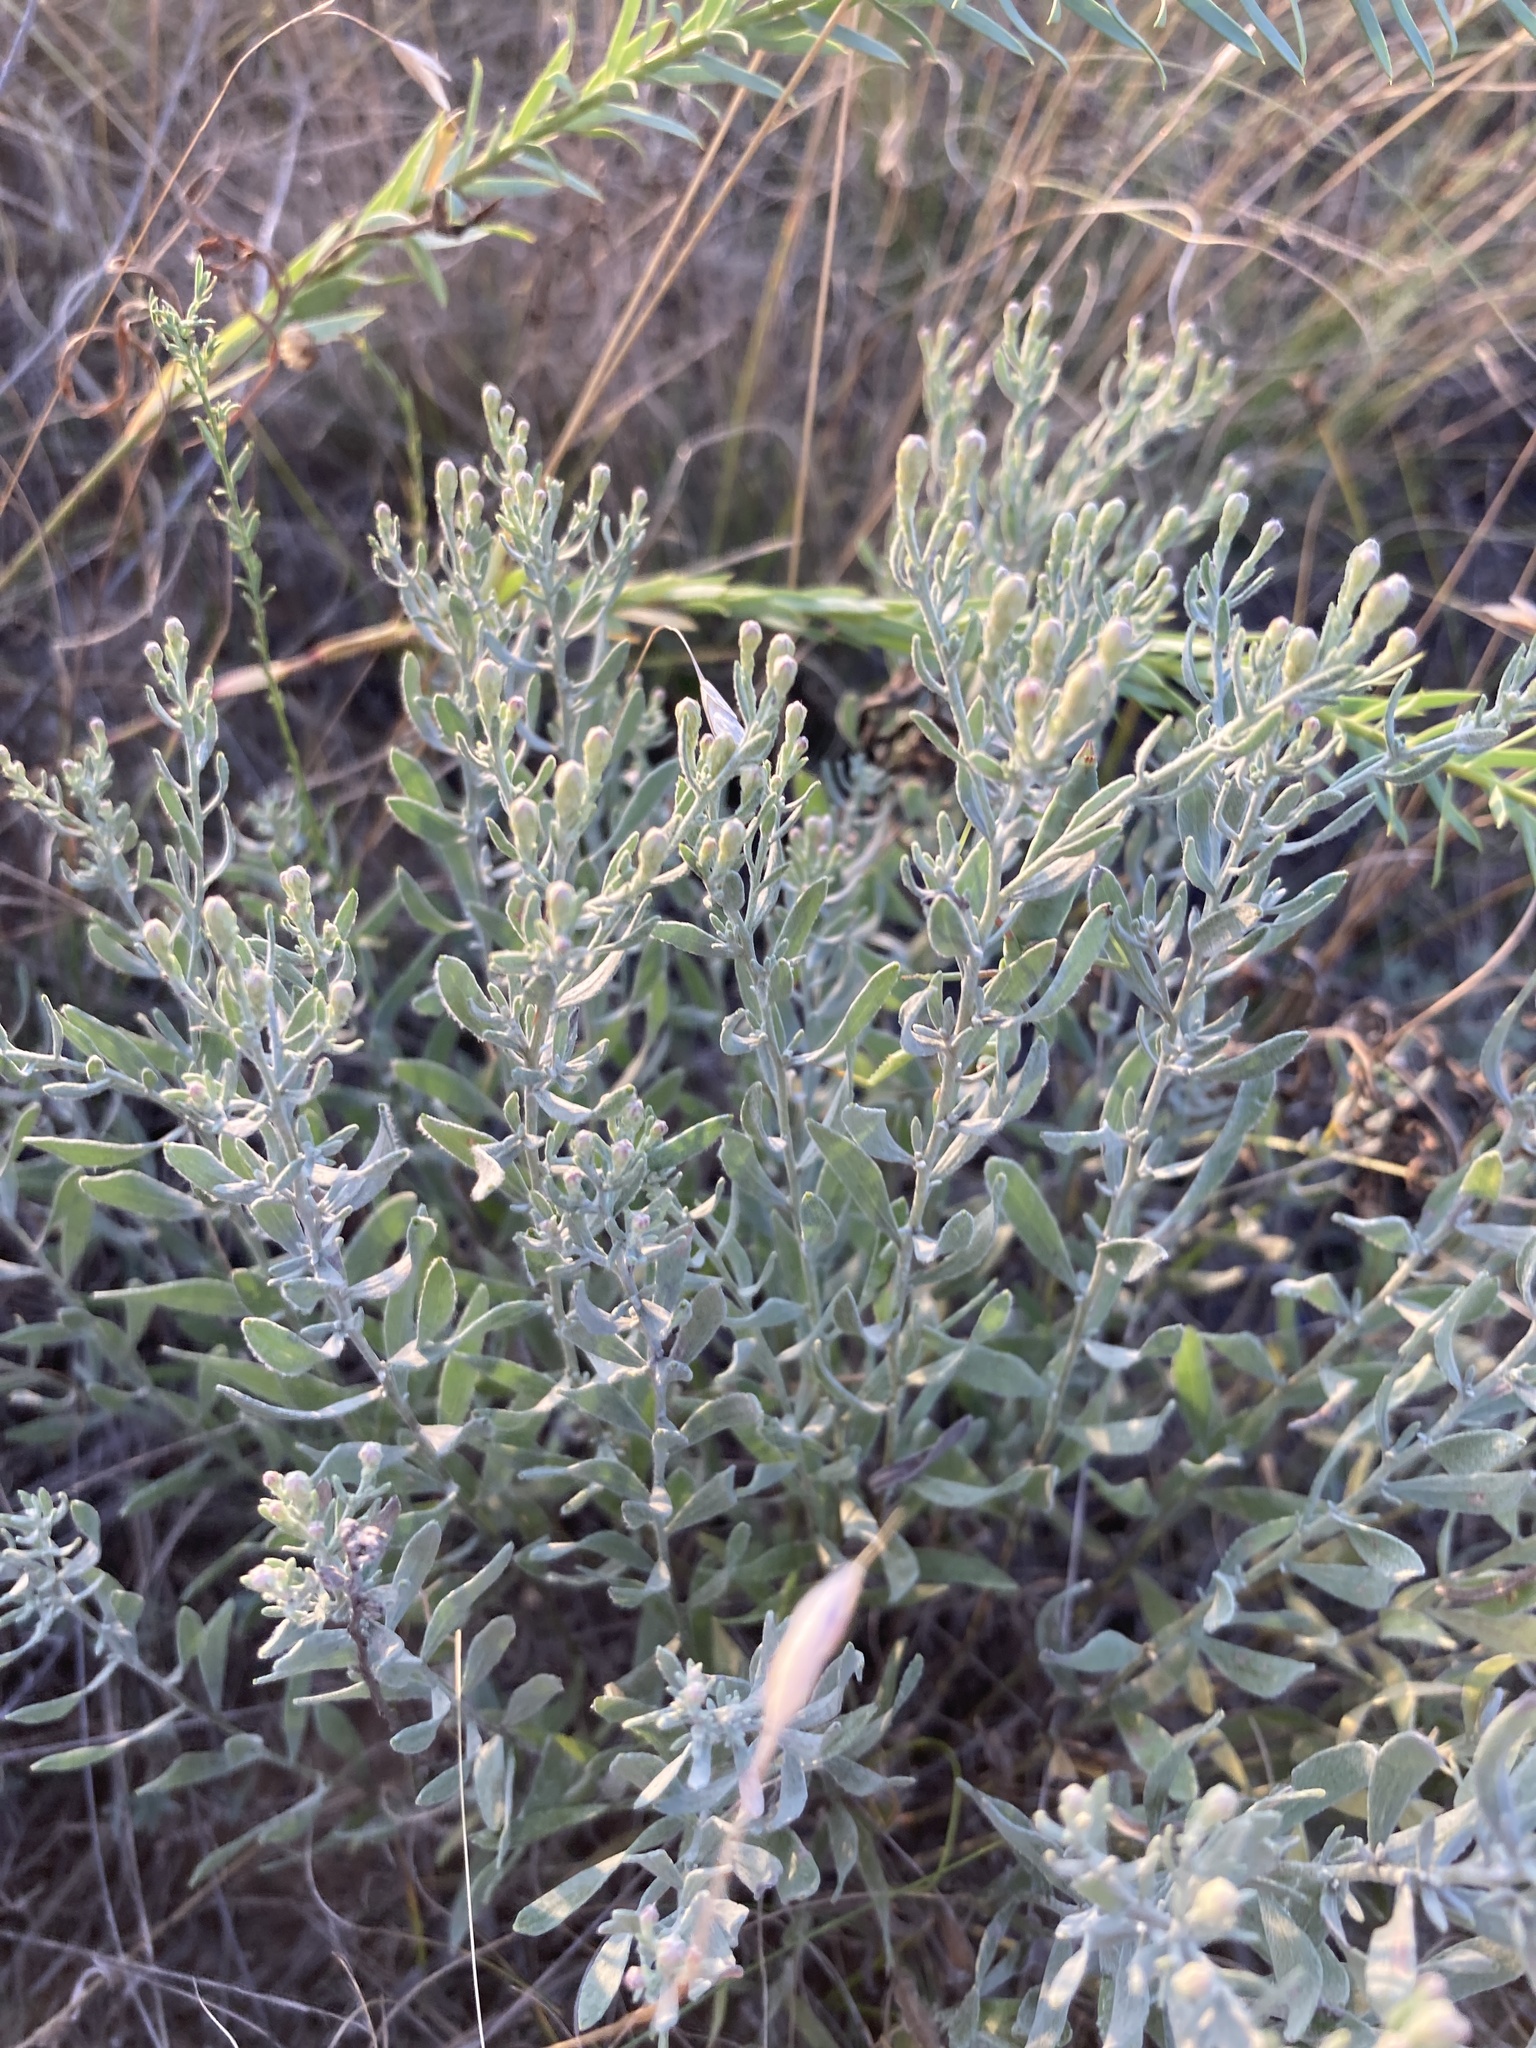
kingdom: Plantae
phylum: Tracheophyta
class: Magnoliopsida
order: Asterales
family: Asteraceae
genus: Galatella
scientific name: Galatella villosa
